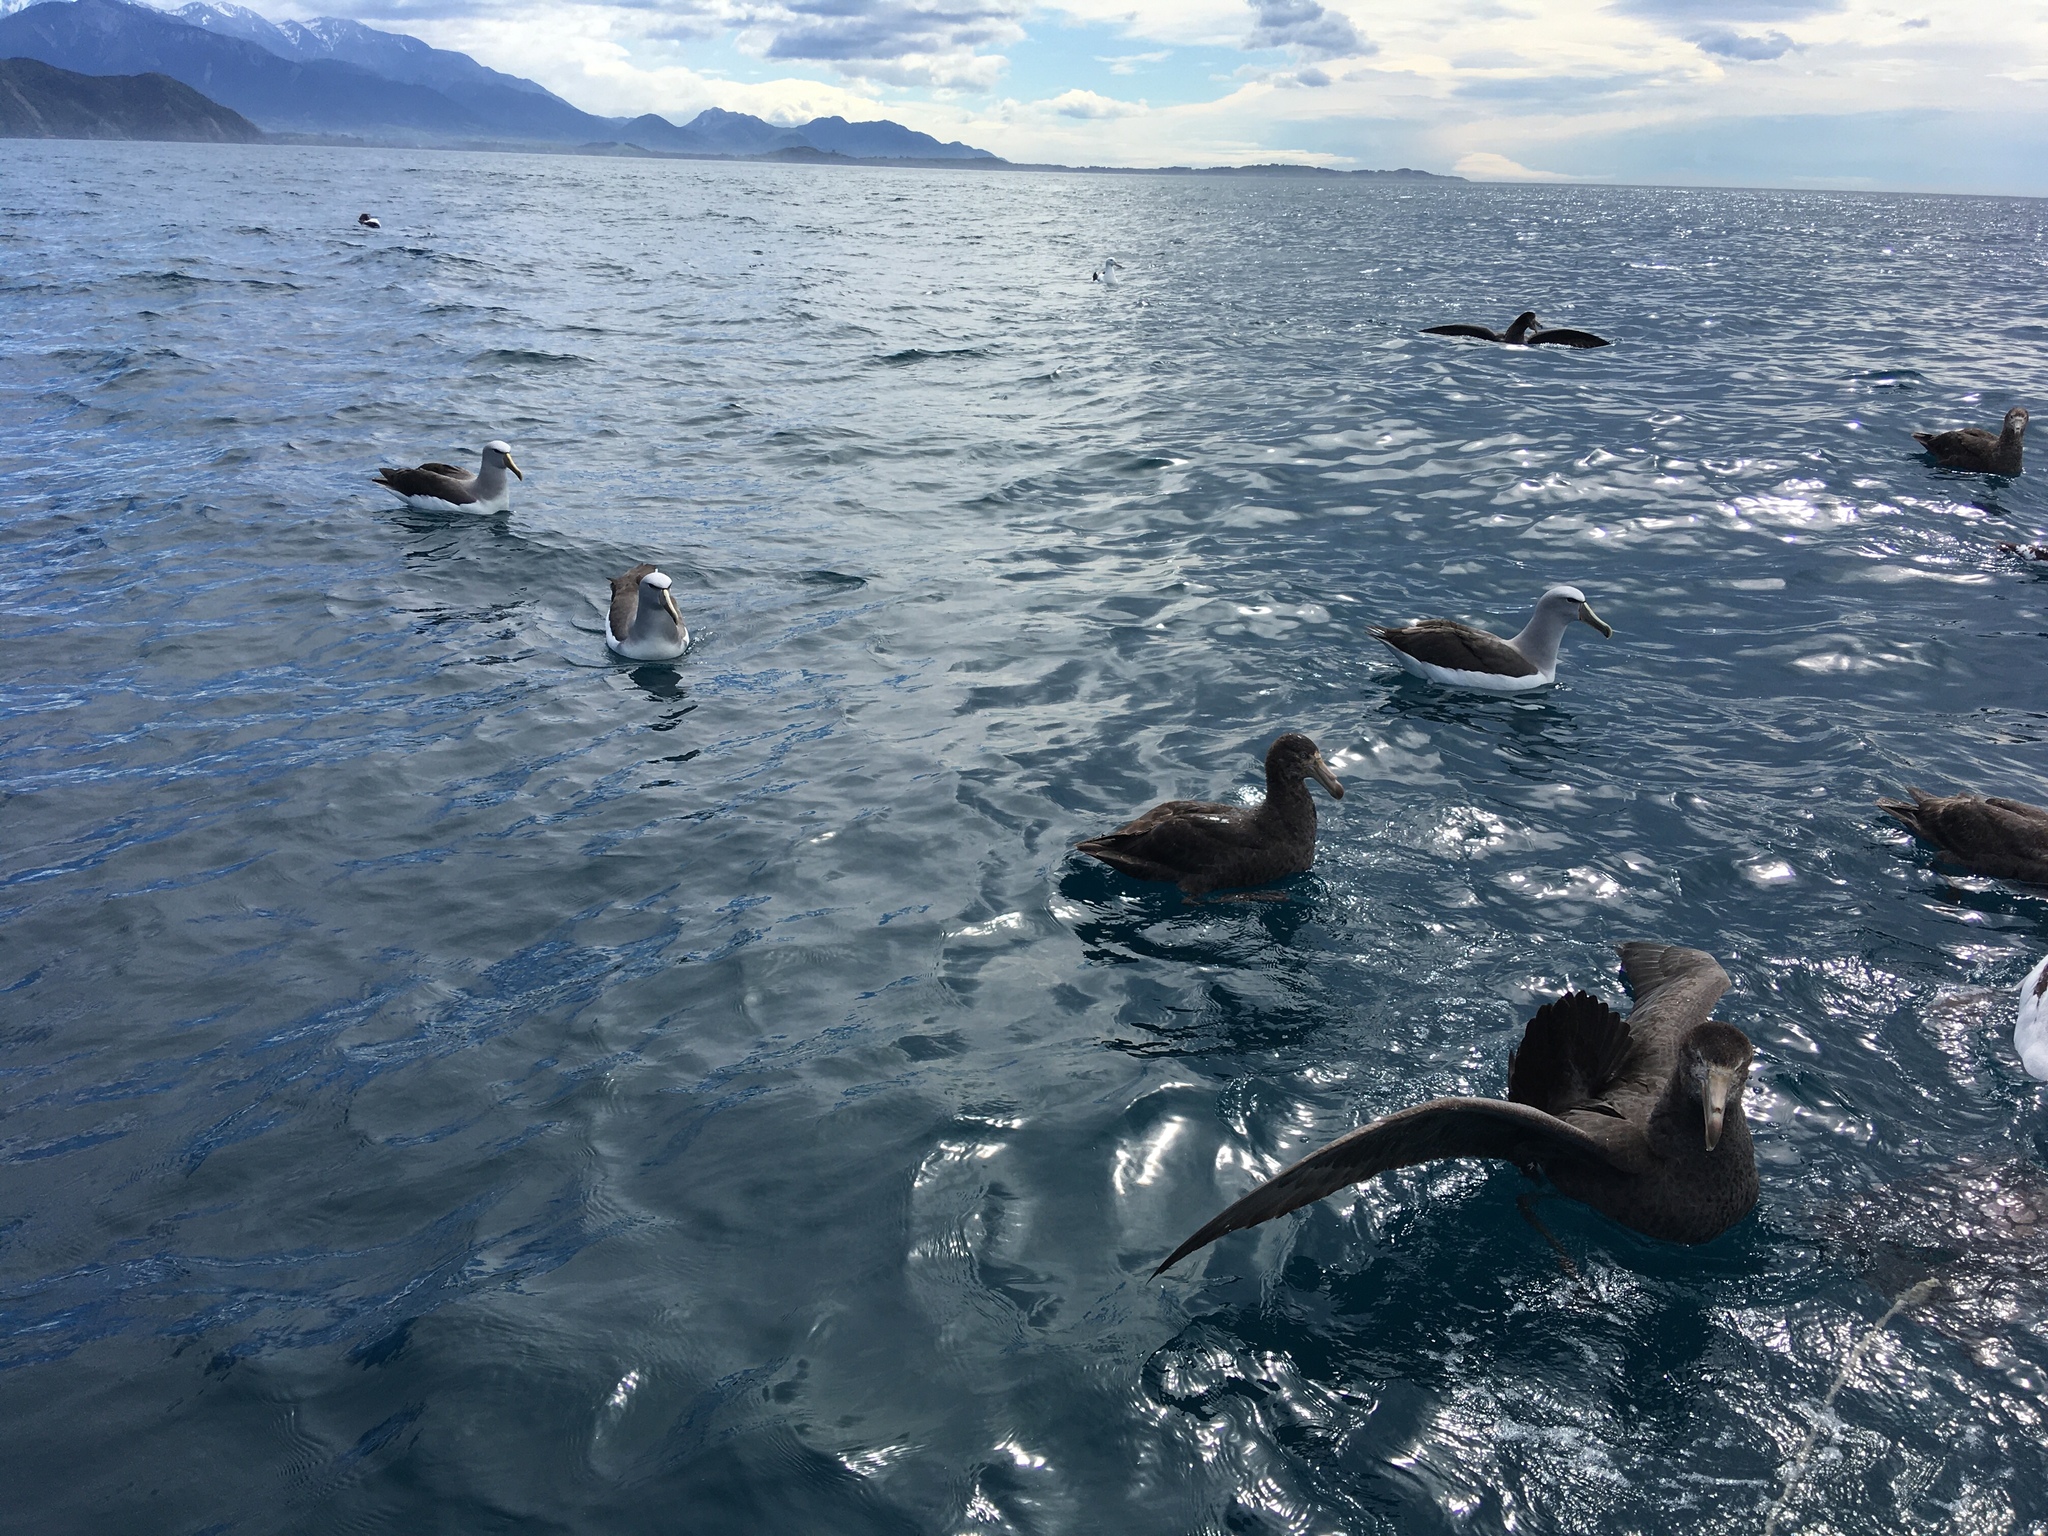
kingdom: Animalia
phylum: Chordata
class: Aves
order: Procellariiformes
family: Diomedeidae
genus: Thalassarche
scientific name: Thalassarche salvini
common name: Salvin's albatross
